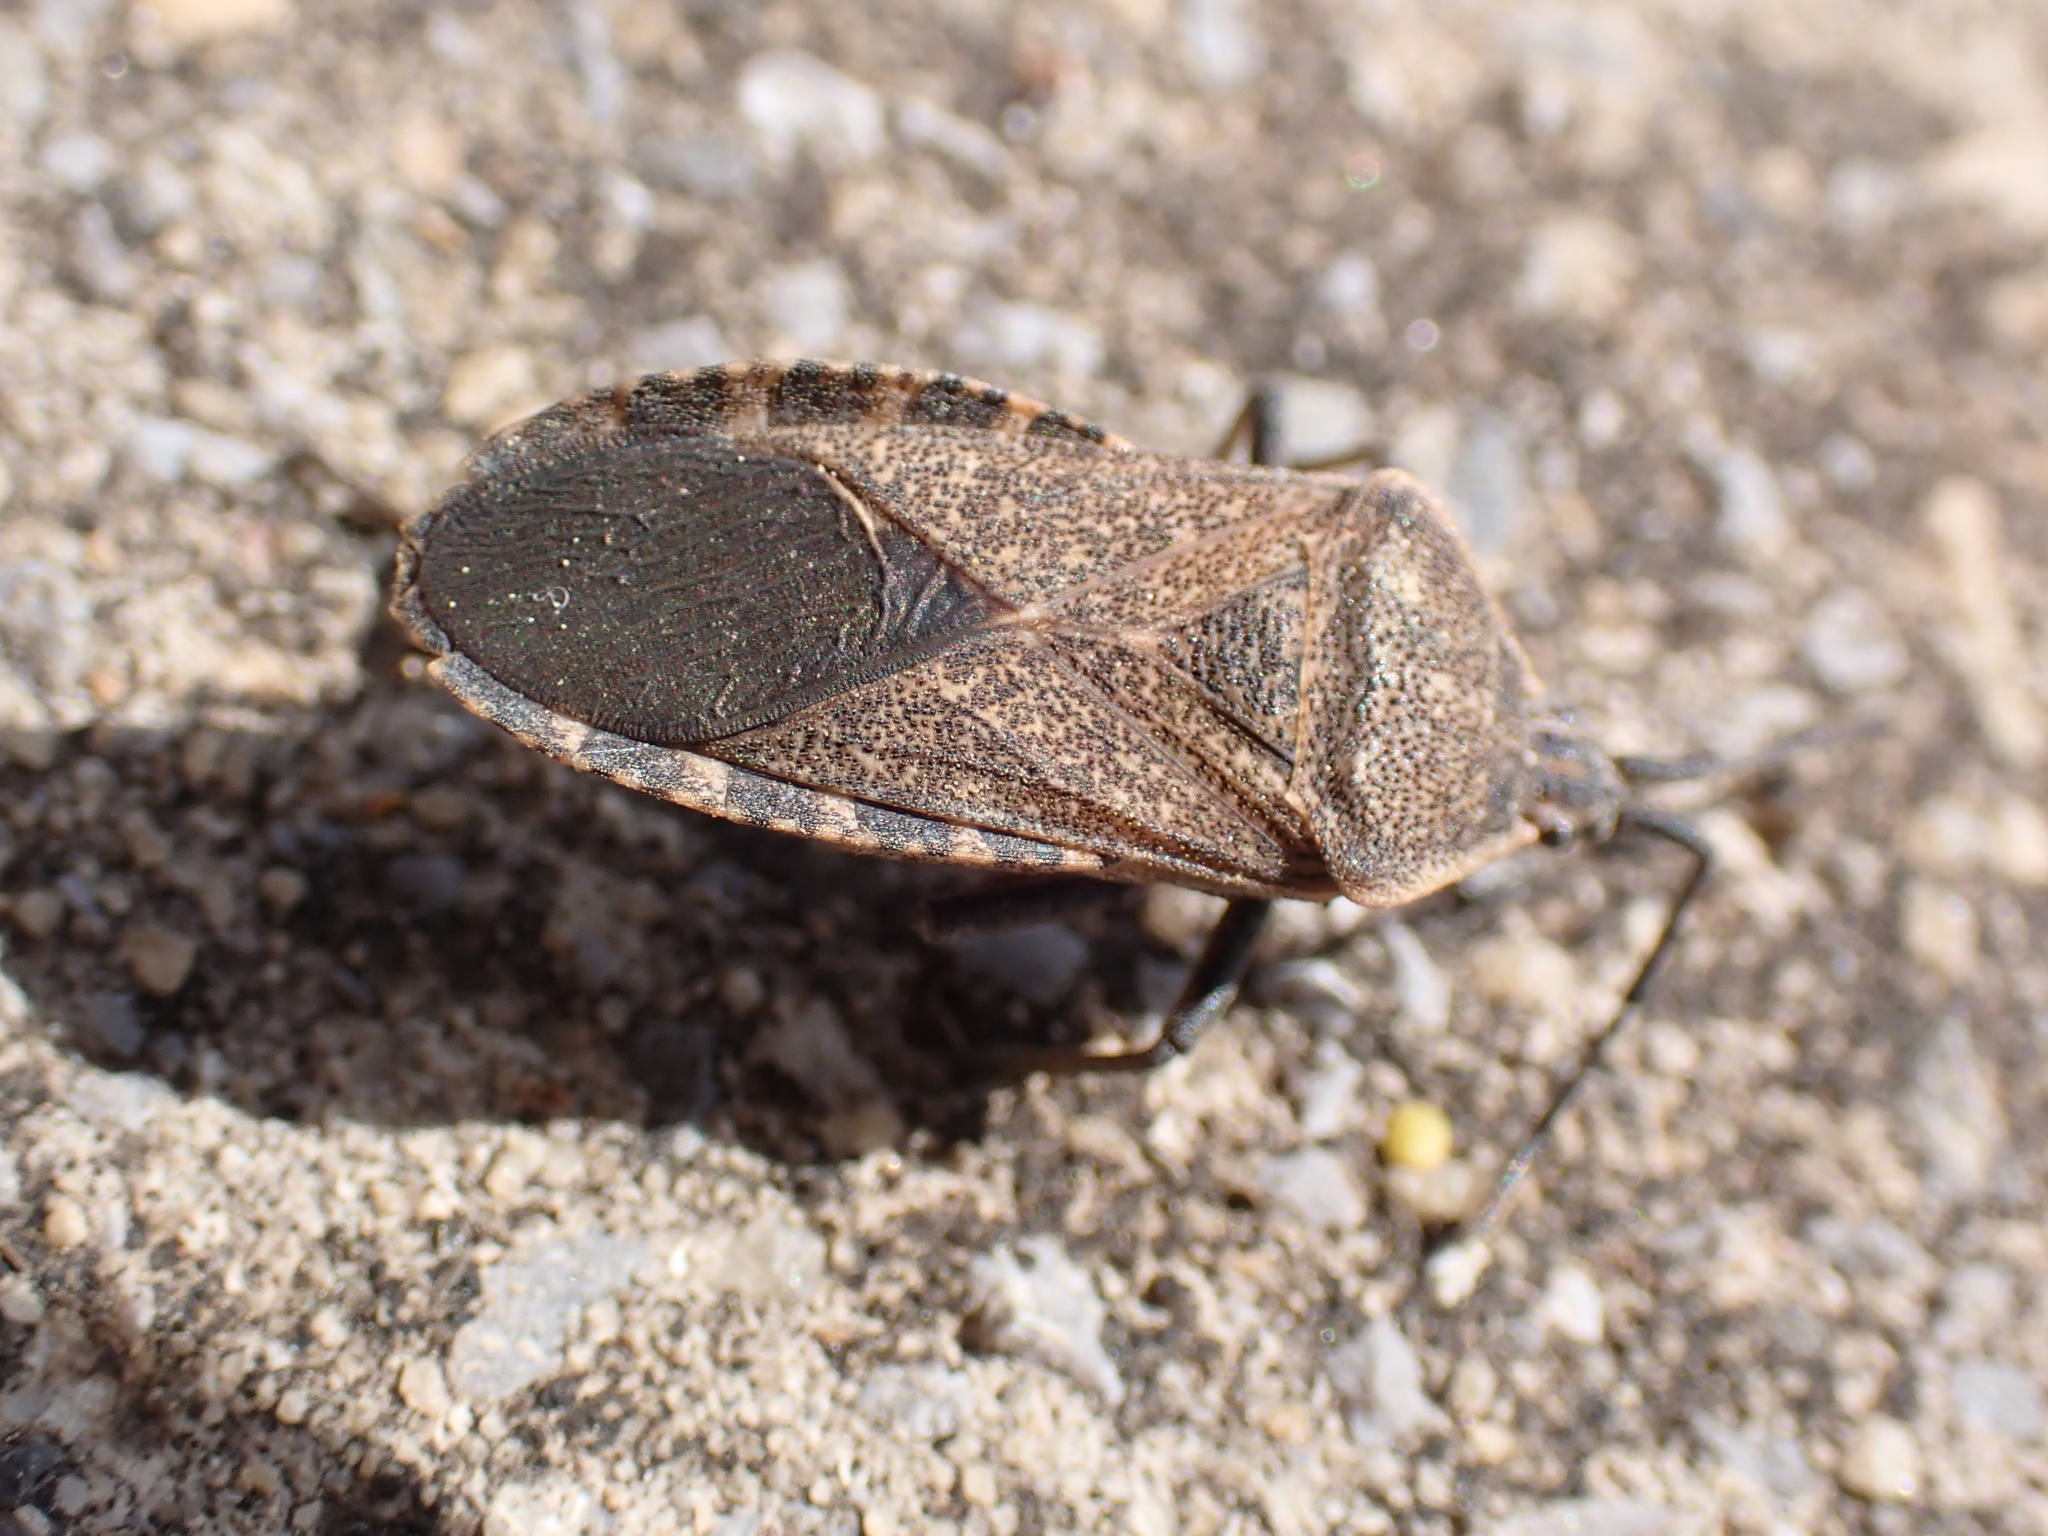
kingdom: Animalia
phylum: Arthropoda
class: Insecta
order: Hemiptera
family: Coreidae
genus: Anasa
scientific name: Anasa tristis
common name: Squash bug
